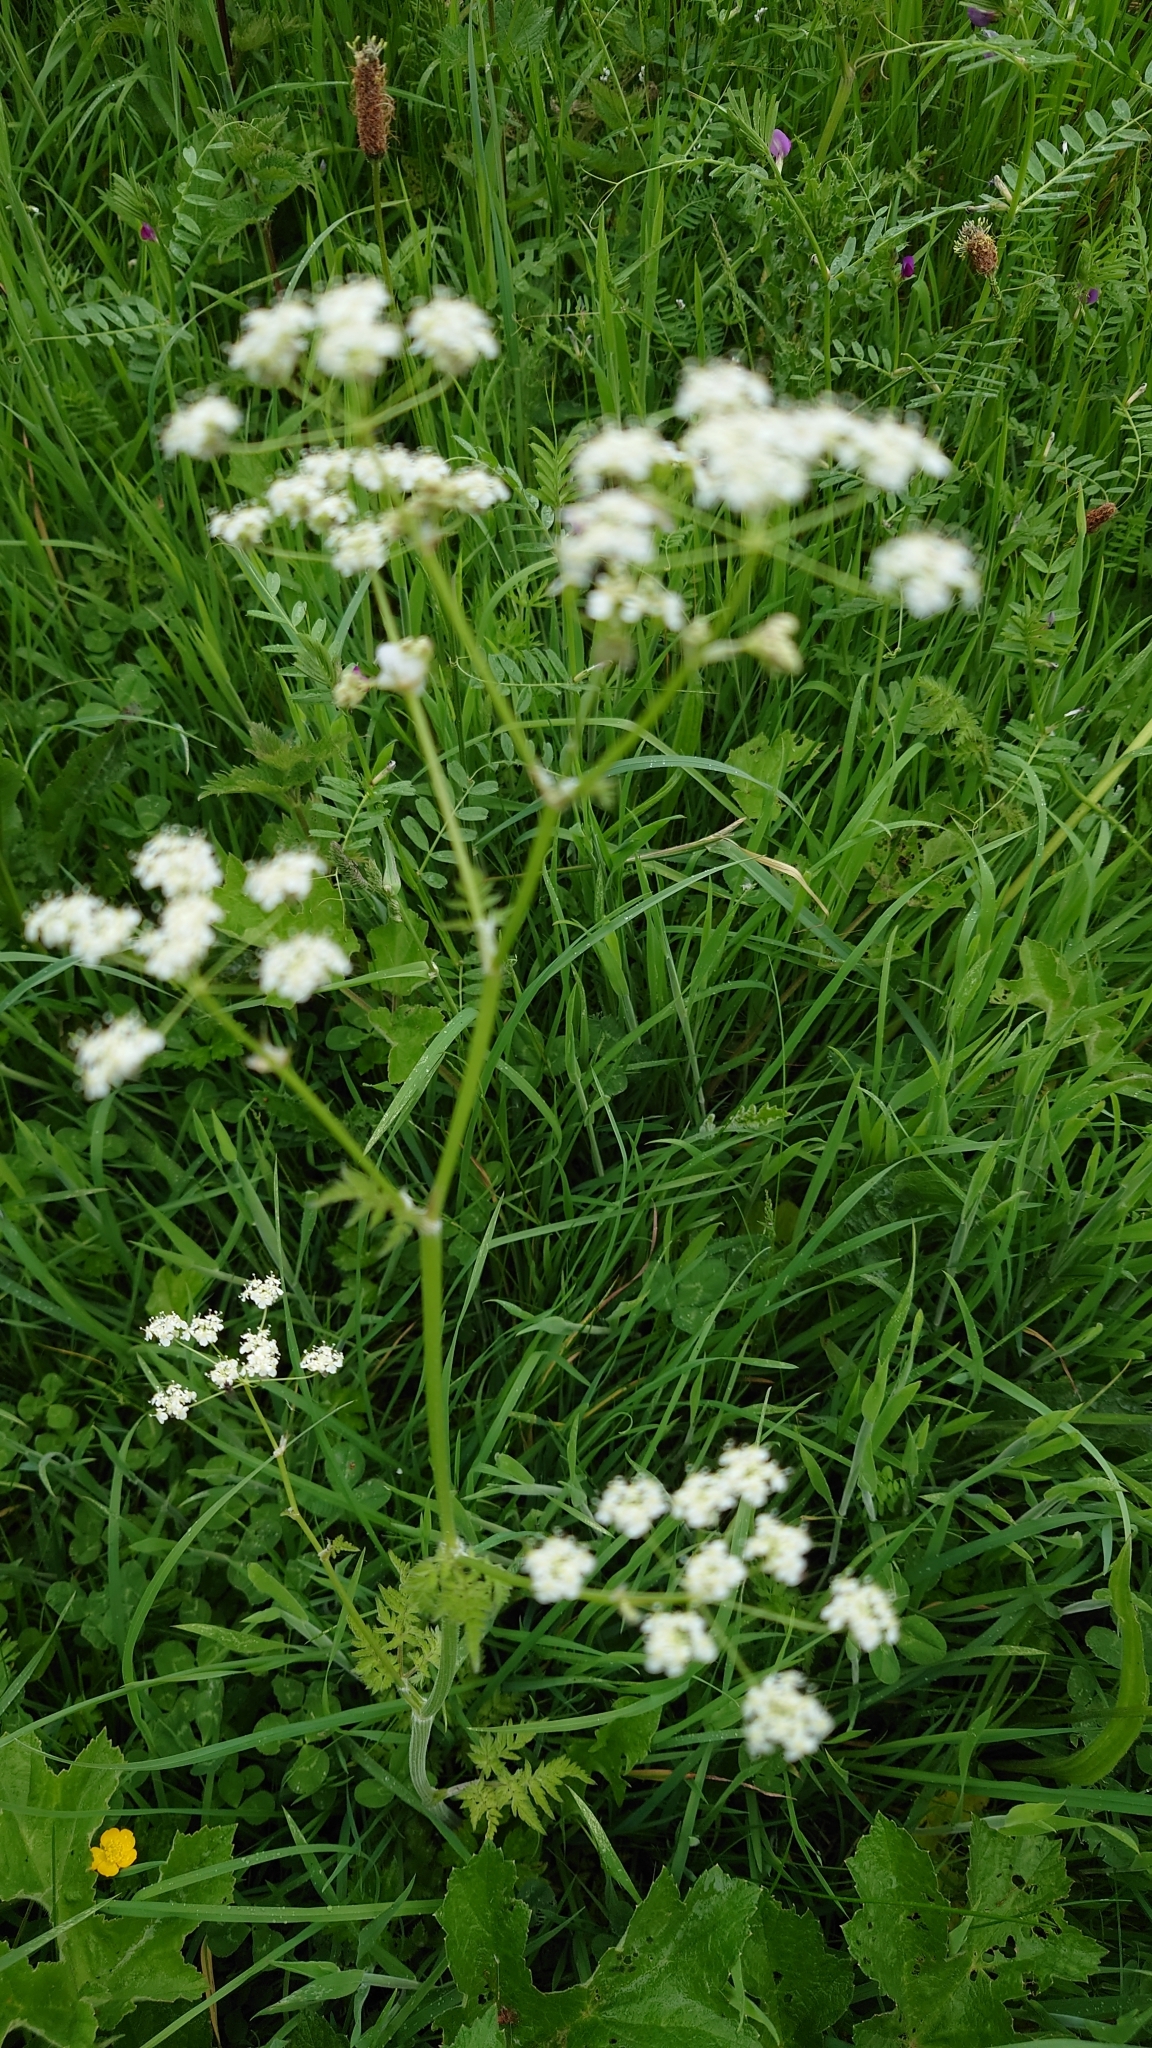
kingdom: Plantae
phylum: Tracheophyta
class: Magnoliopsida
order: Apiales
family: Apiaceae
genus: Anthriscus
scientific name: Anthriscus sylvestris
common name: Cow parsley
